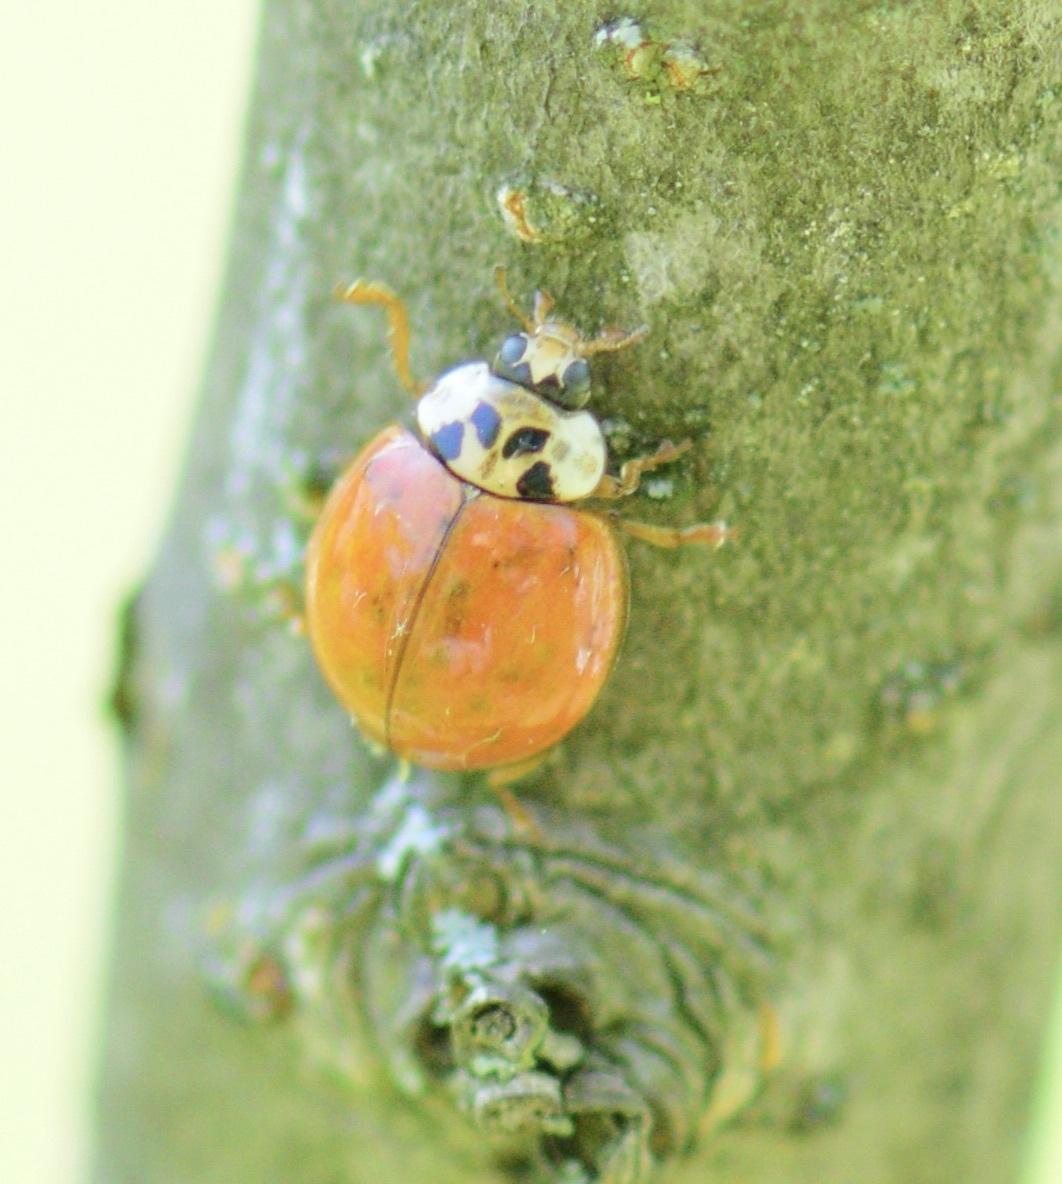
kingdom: Animalia
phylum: Arthropoda
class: Insecta
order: Coleoptera
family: Coccinellidae
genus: Harmonia
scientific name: Harmonia axyridis
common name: Harlequin ladybird
